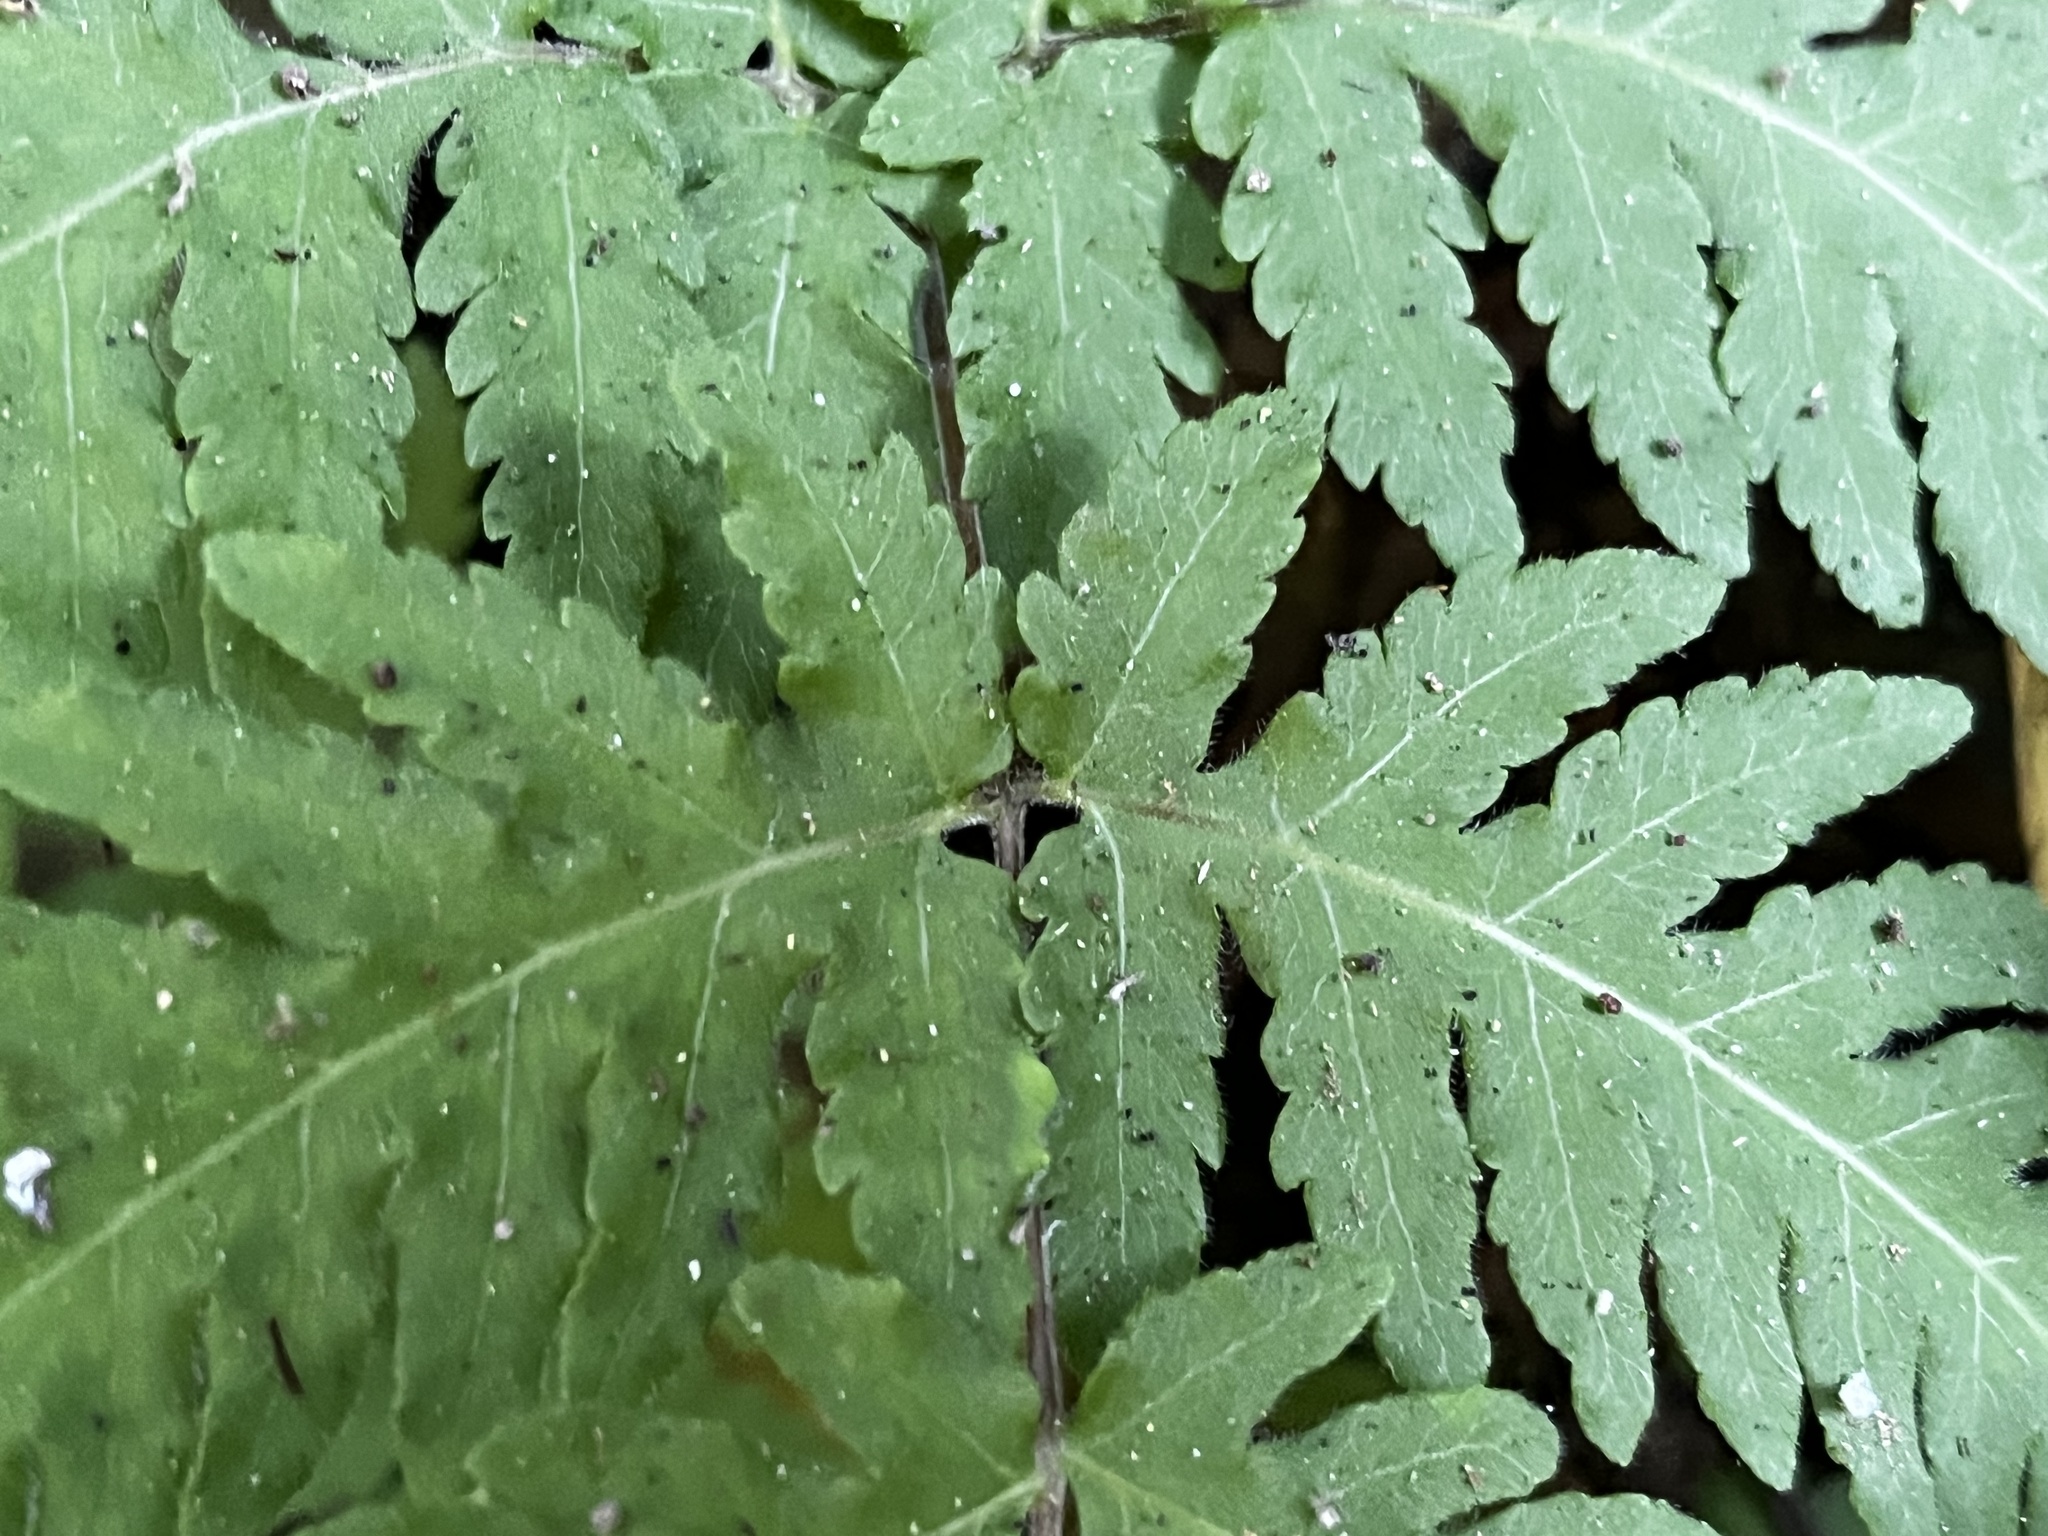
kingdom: Plantae
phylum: Tracheophyta
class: Polypodiopsida
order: Polypodiales
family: Tectariaceae
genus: Tectaria
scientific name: Tectaria membranacea
